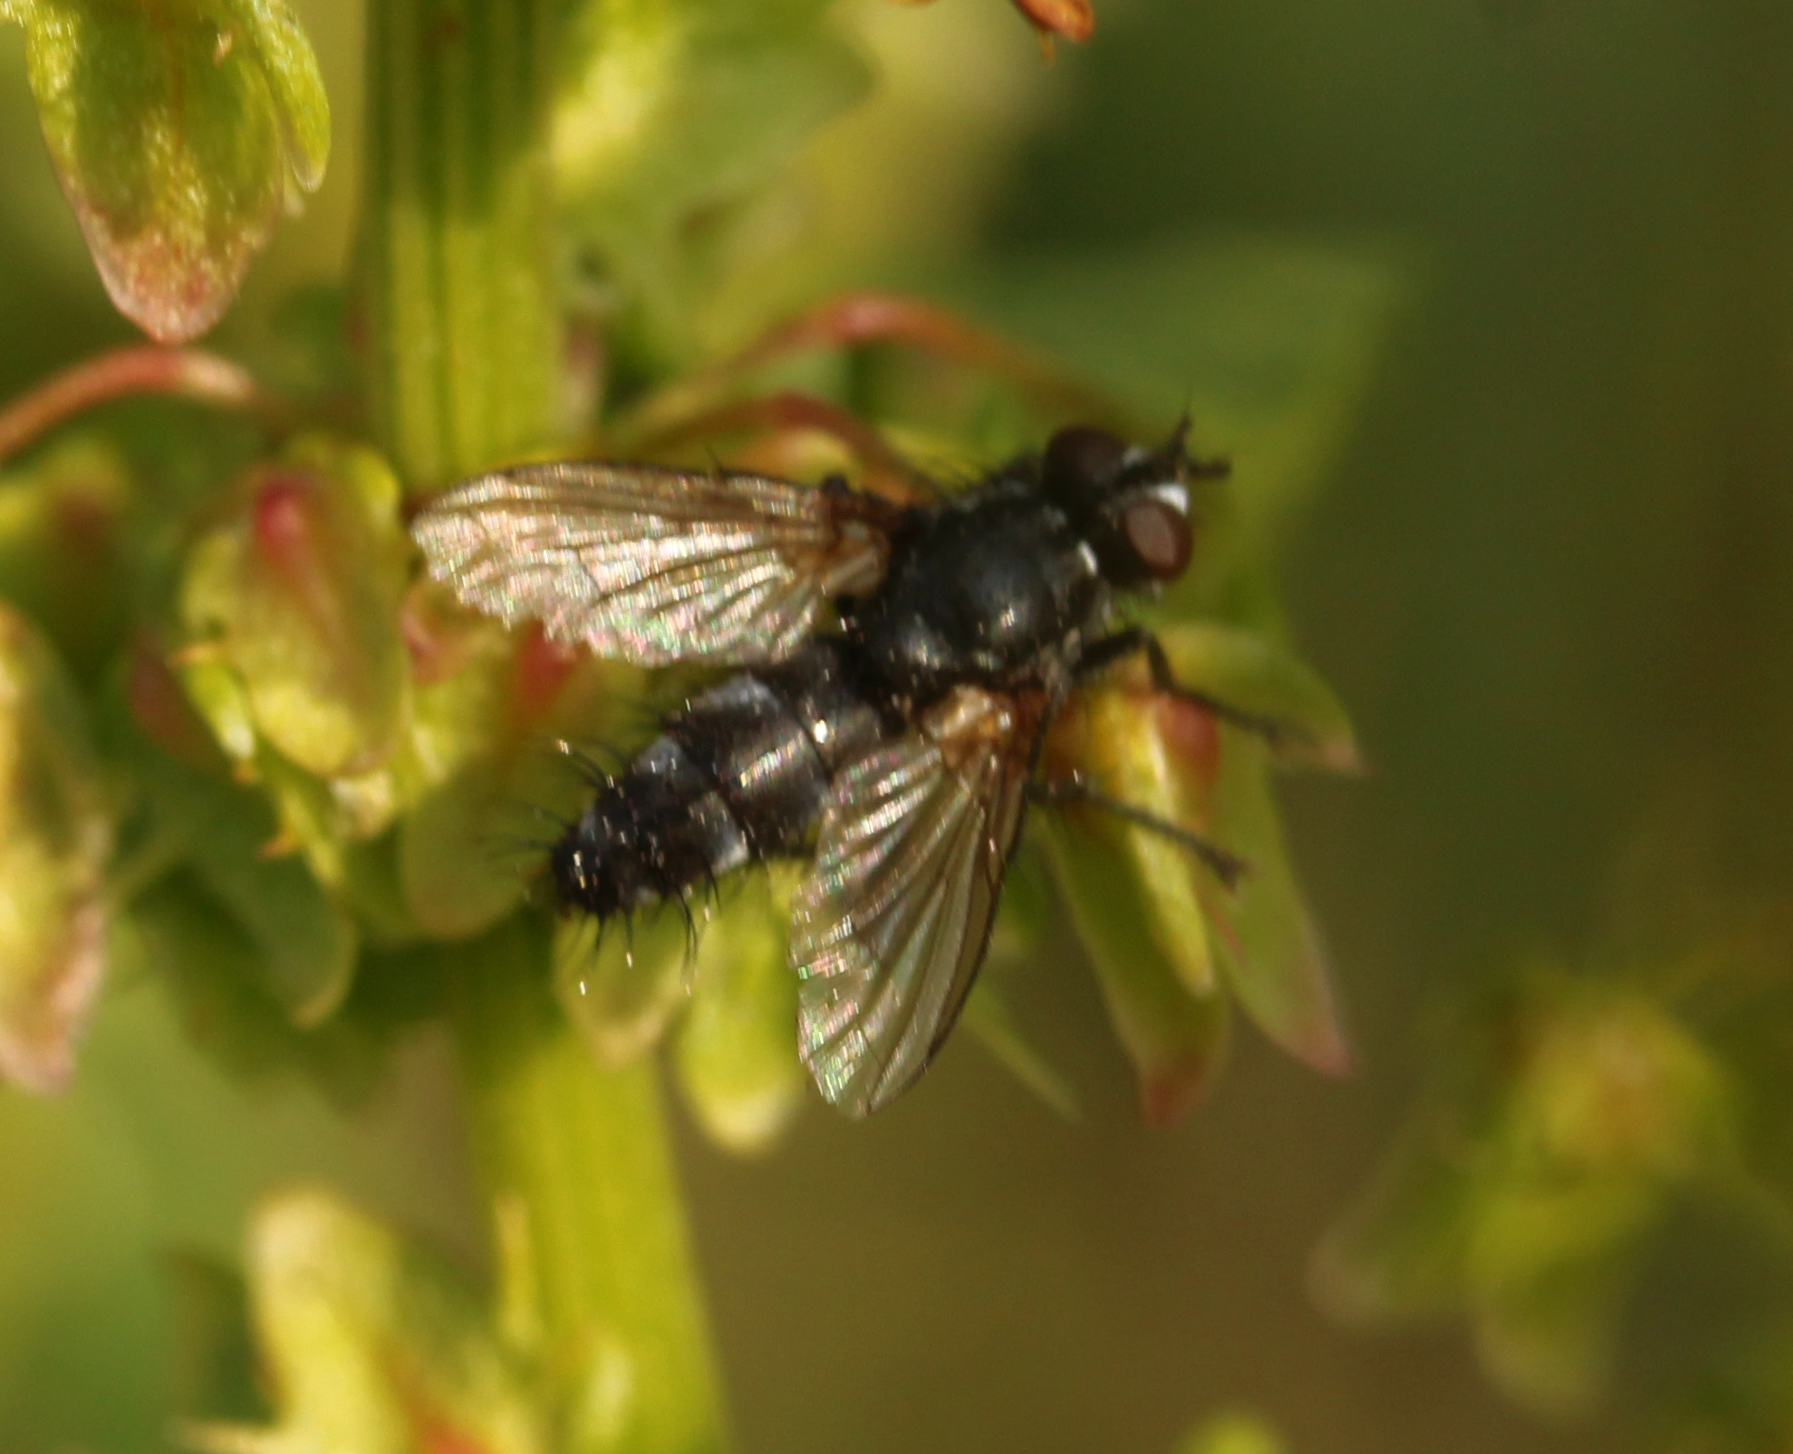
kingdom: Animalia
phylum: Arthropoda
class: Insecta
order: Diptera
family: Calliphoridae
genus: Stevenia
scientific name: Stevenia deceptoria
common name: Grizzled woodlouse-fly
